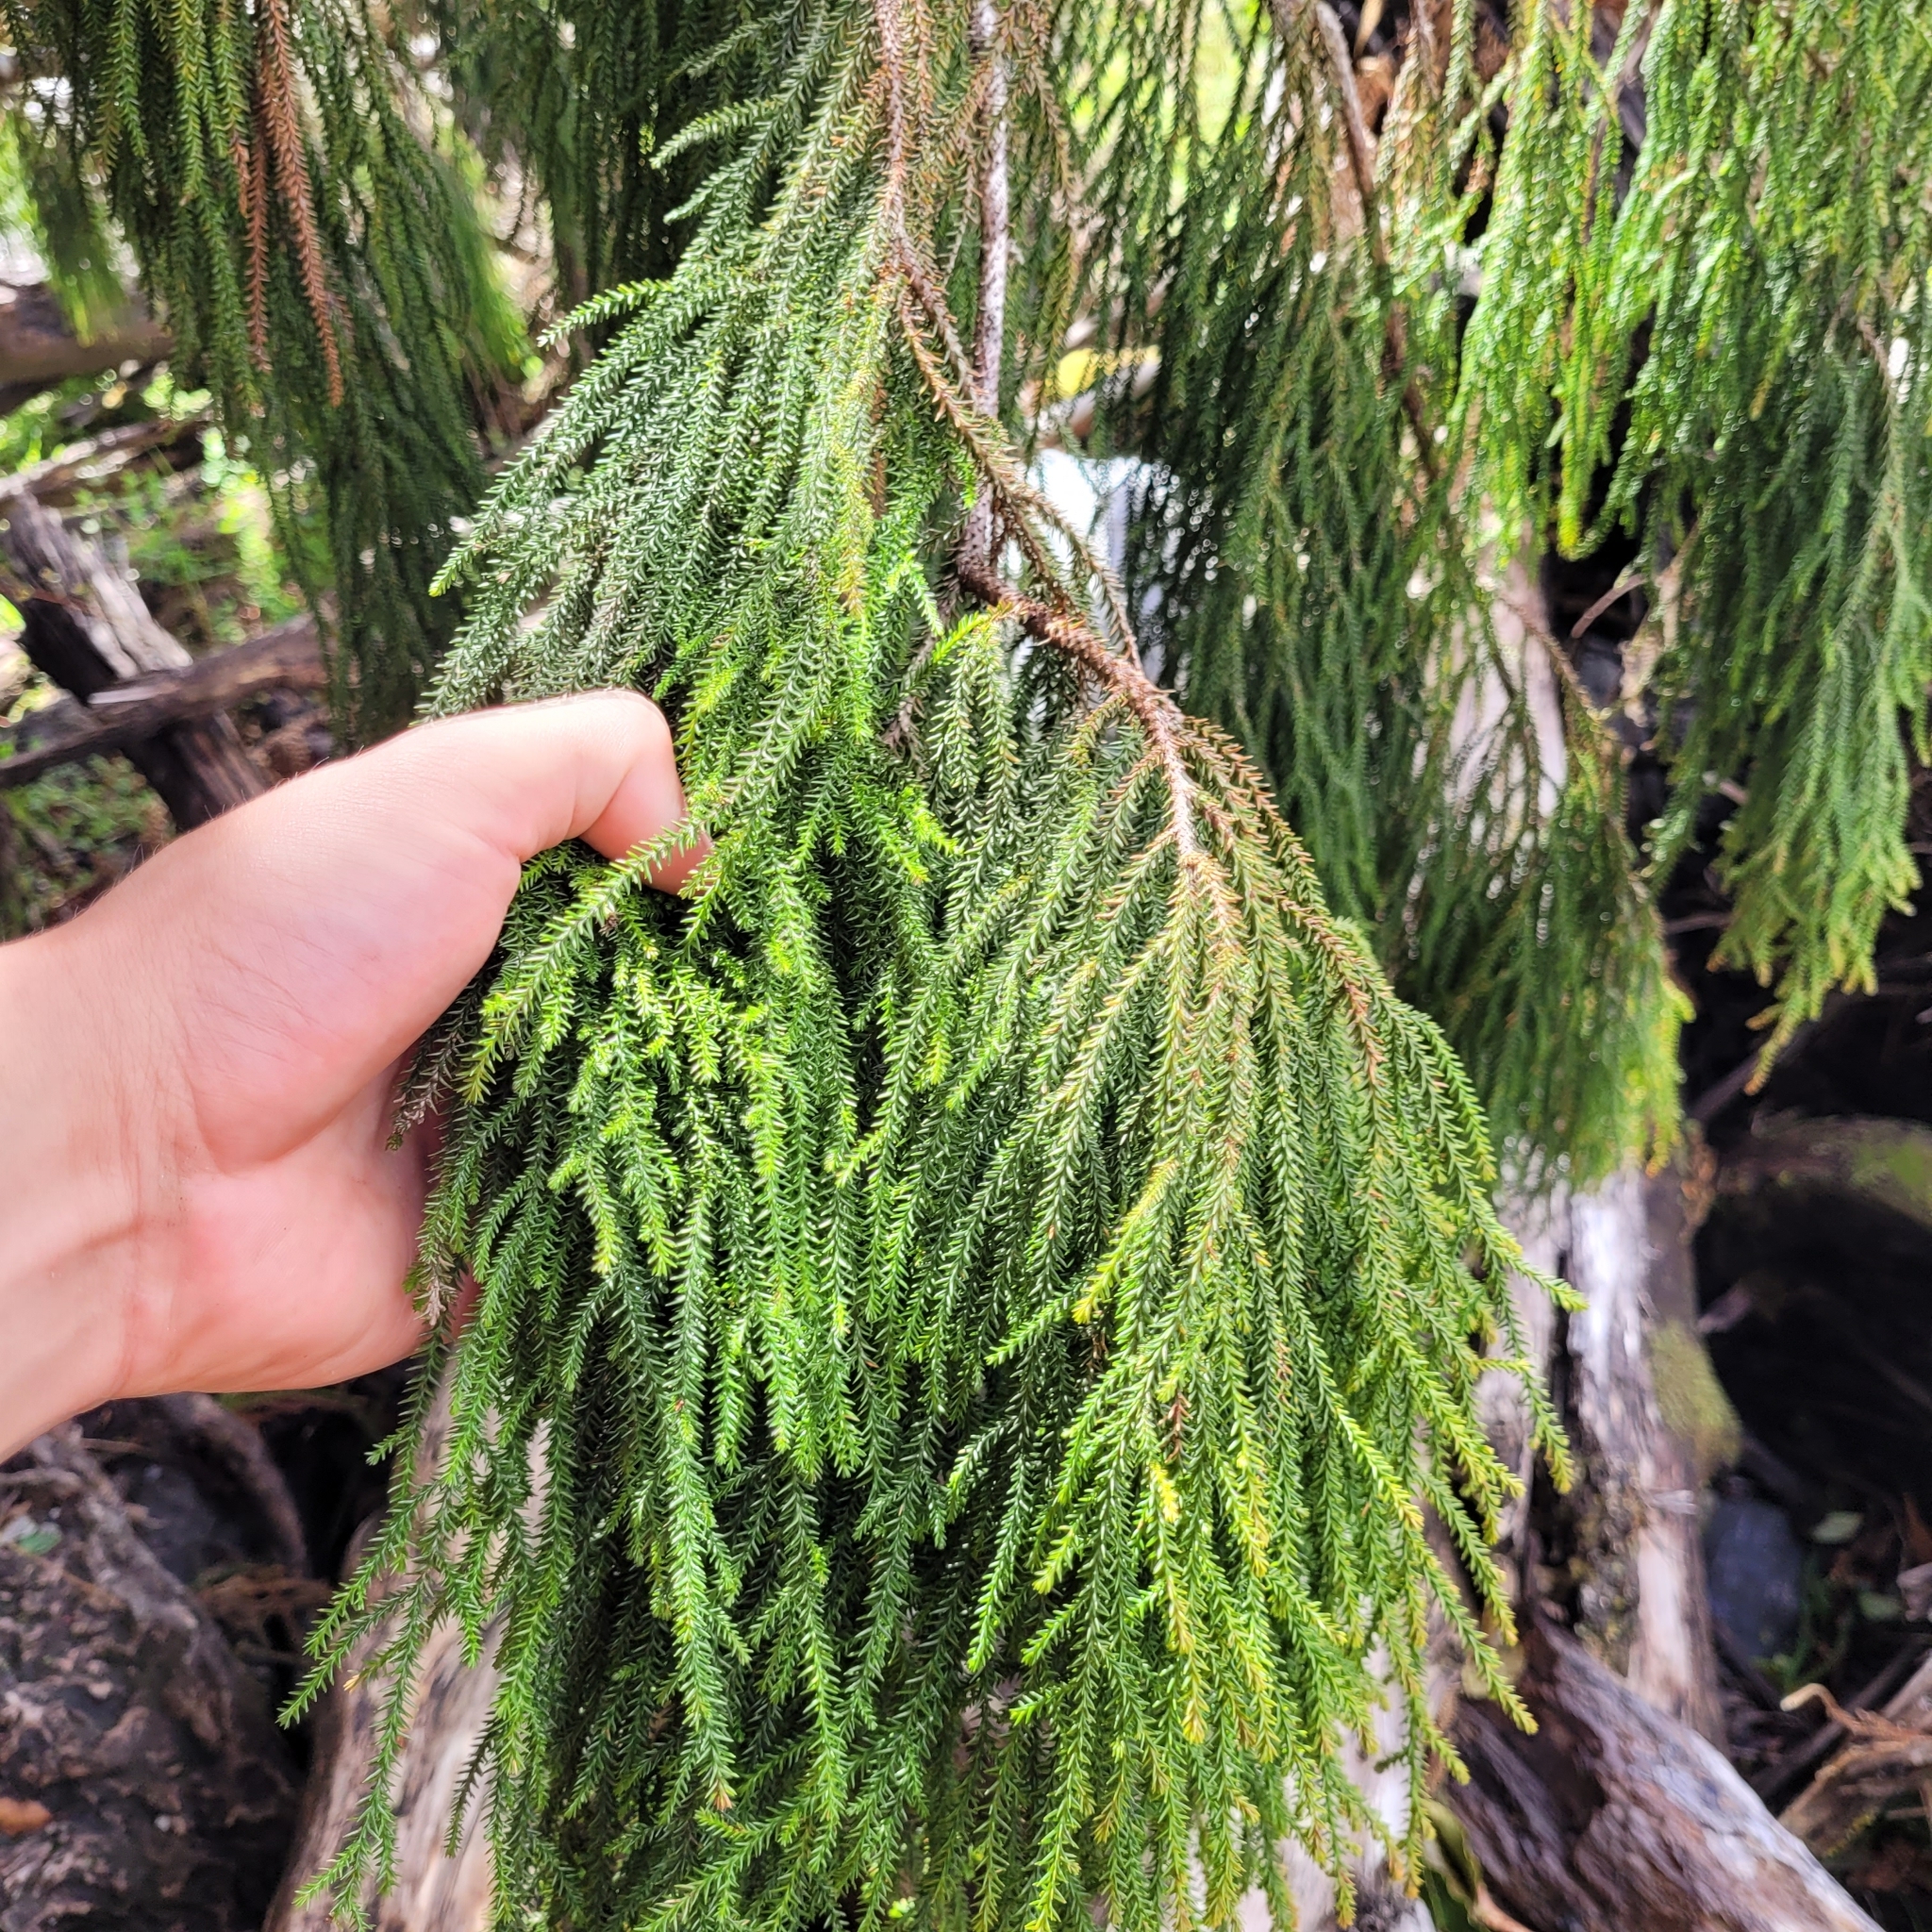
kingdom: Plantae
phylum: Tracheophyta
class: Pinopsida
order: Pinales
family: Podocarpaceae
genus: Dacrydium
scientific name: Dacrydium cupressinum
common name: Red pine
